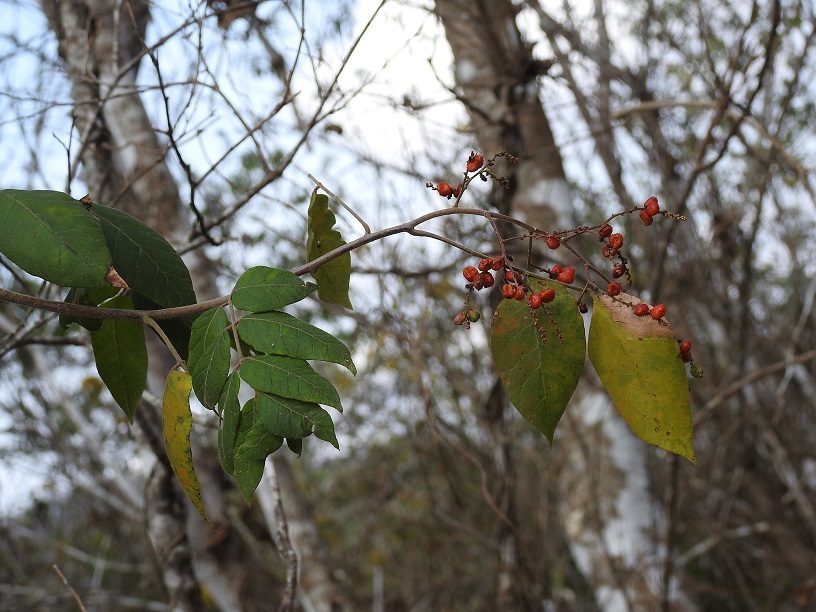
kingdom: Plantae
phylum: Tracheophyta
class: Magnoliopsida
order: Sapindales
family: Anacardiaceae
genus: Rhus
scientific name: Rhus terebinthifolia
